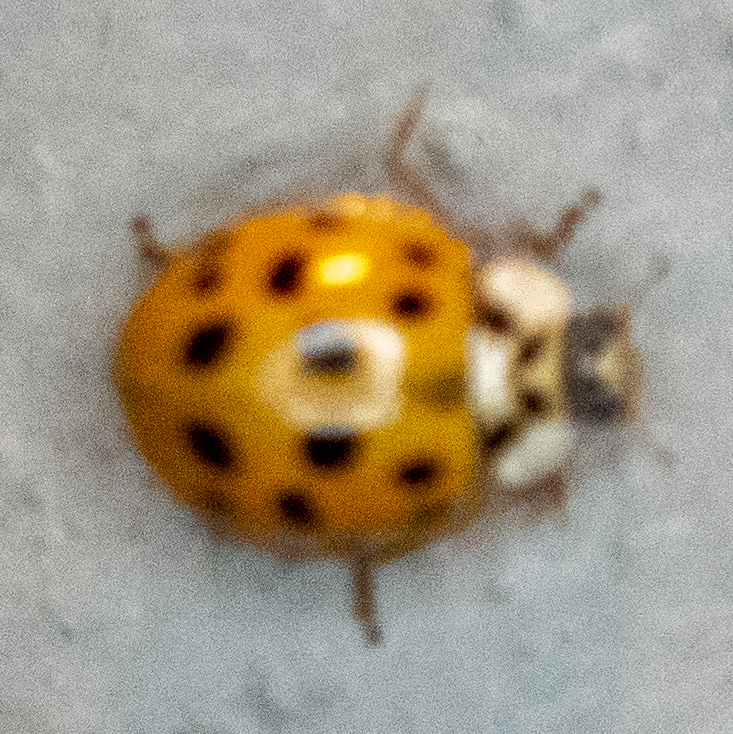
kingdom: Animalia
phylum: Arthropoda
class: Insecta
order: Coleoptera
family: Coccinellidae
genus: Harmonia
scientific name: Harmonia axyridis
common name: Harlequin ladybird
